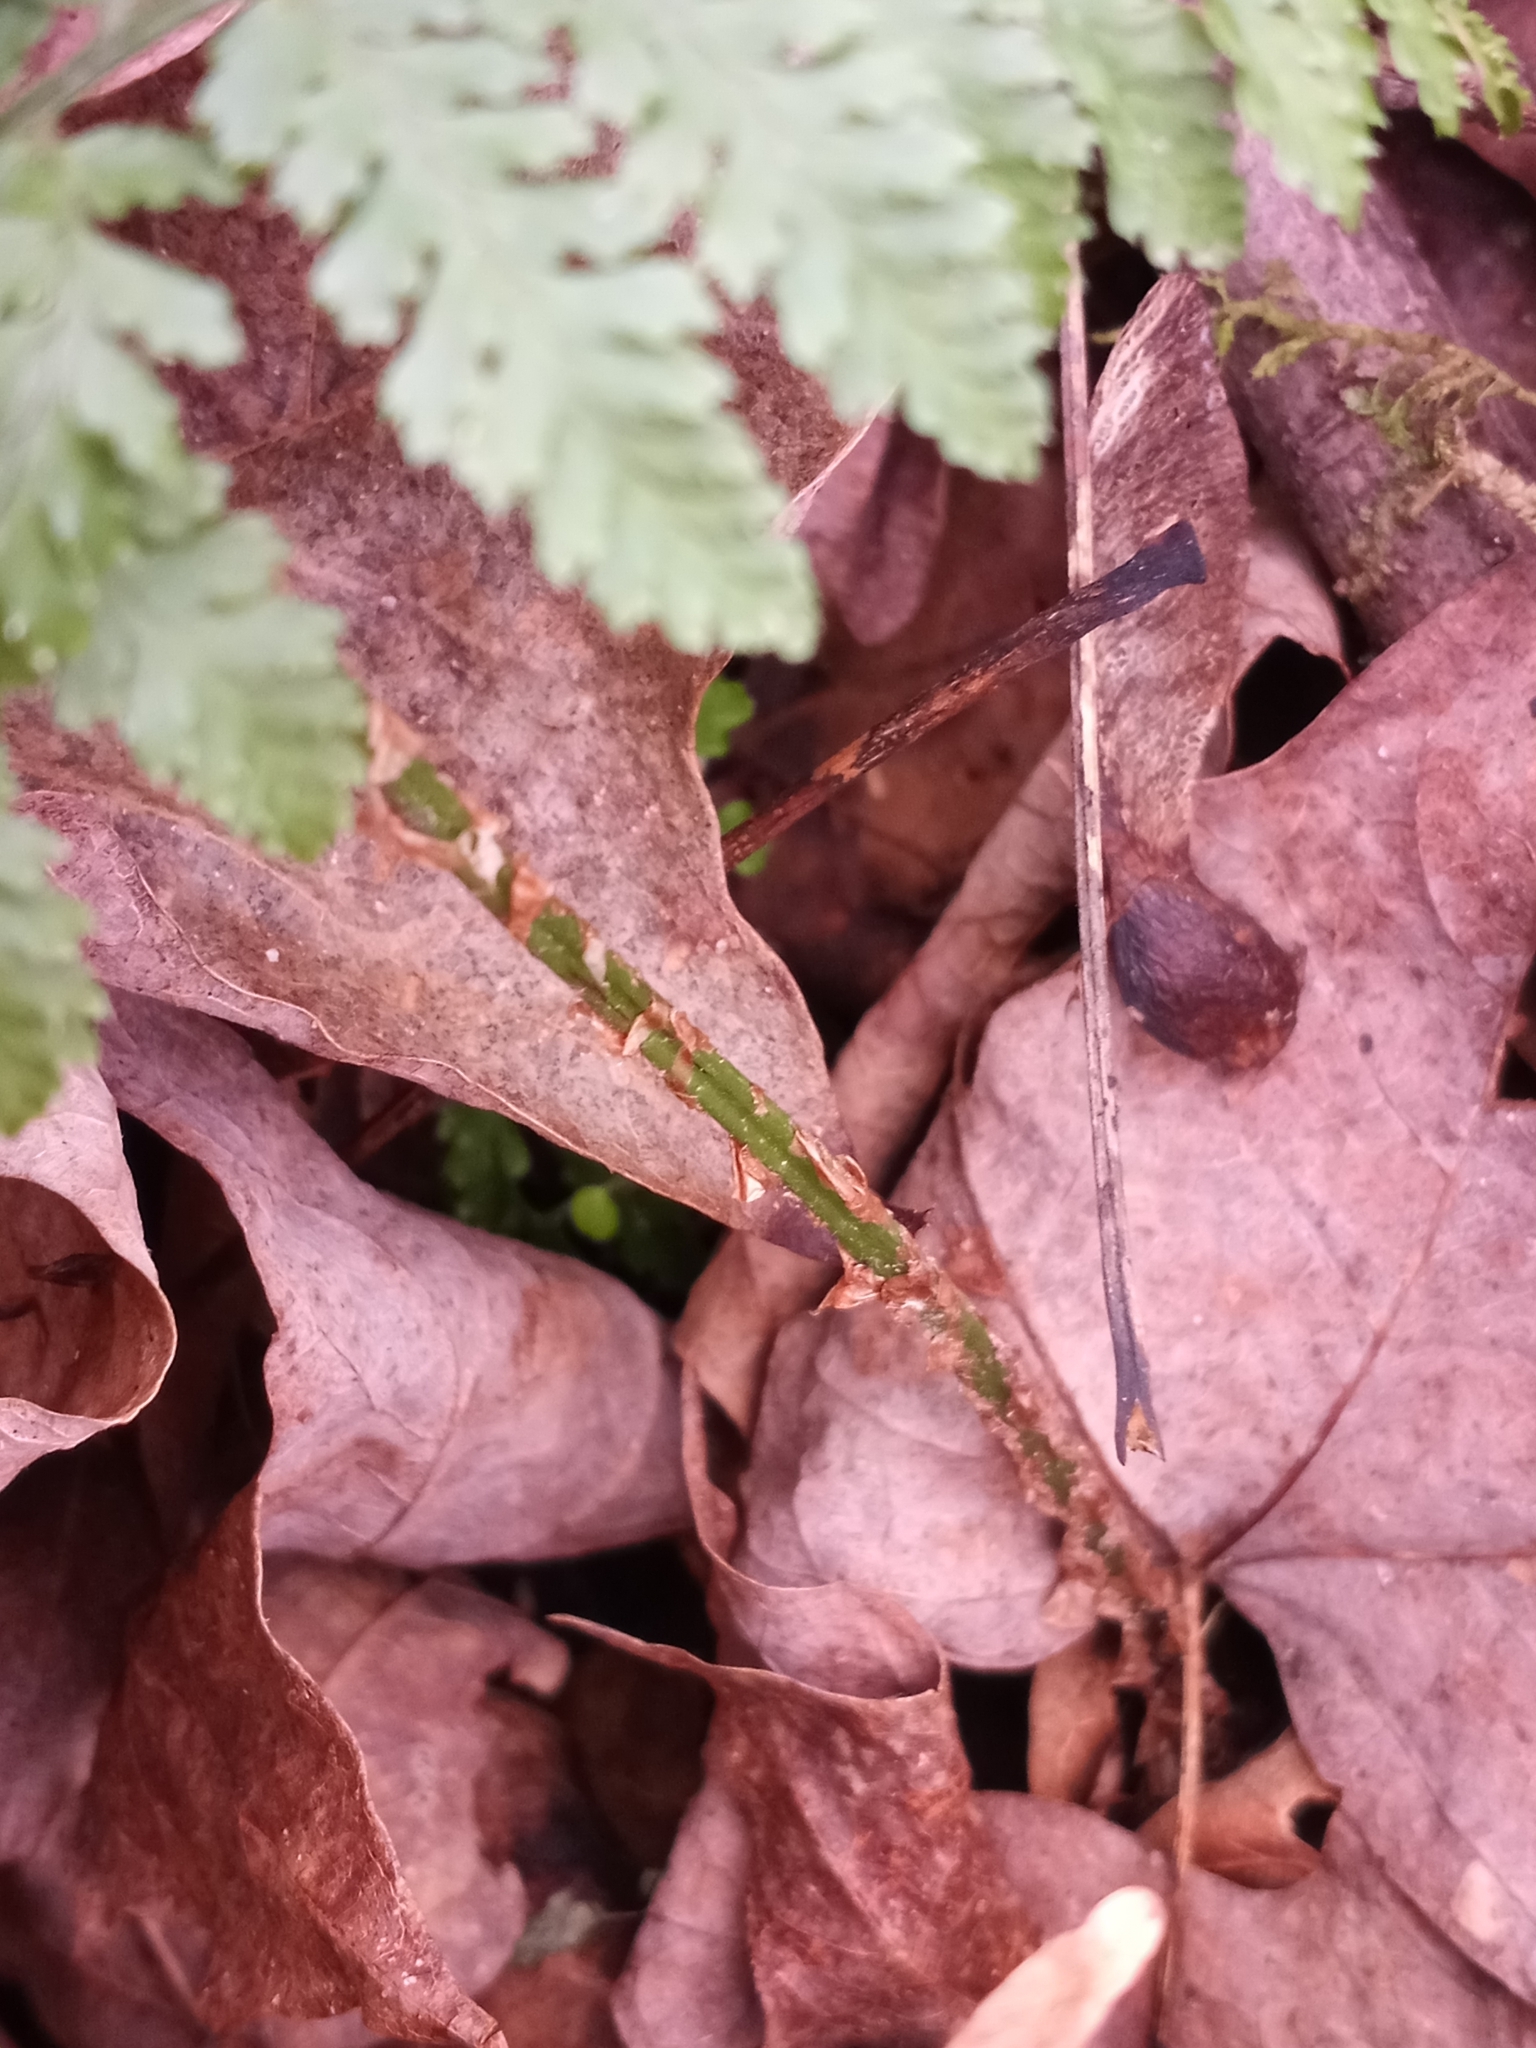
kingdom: Plantae
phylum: Tracheophyta
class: Polypodiopsida
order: Polypodiales
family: Dryopteridaceae
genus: Dryopteris
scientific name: Dryopteris intermedia
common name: Evergreen wood fern
